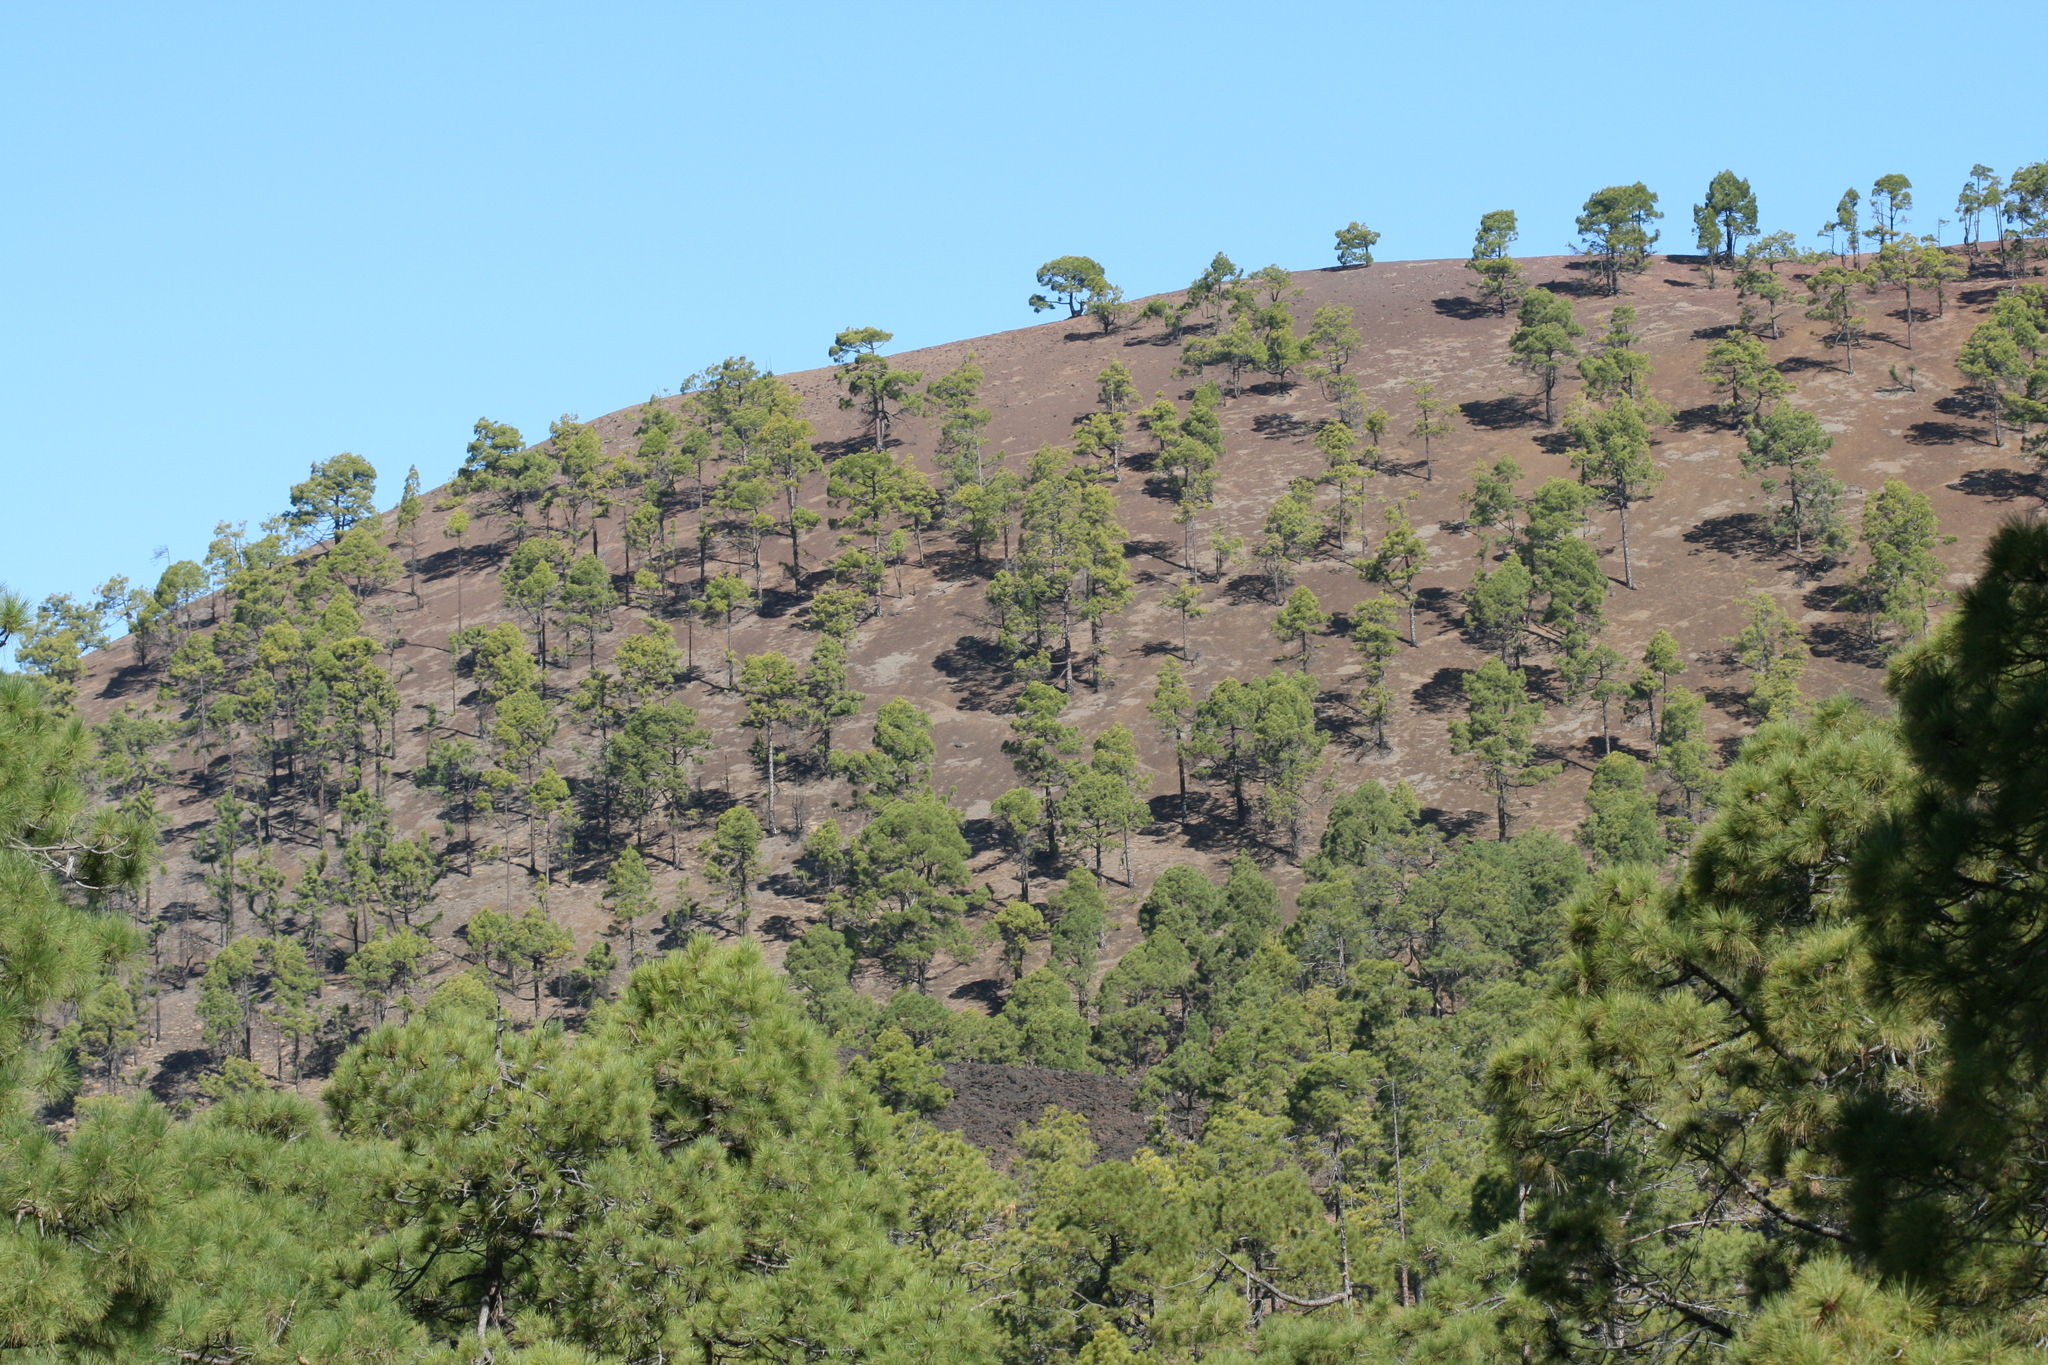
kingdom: Plantae
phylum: Tracheophyta
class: Pinopsida
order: Pinales
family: Pinaceae
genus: Pinus
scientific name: Pinus canariensis
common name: Canary islands pine
